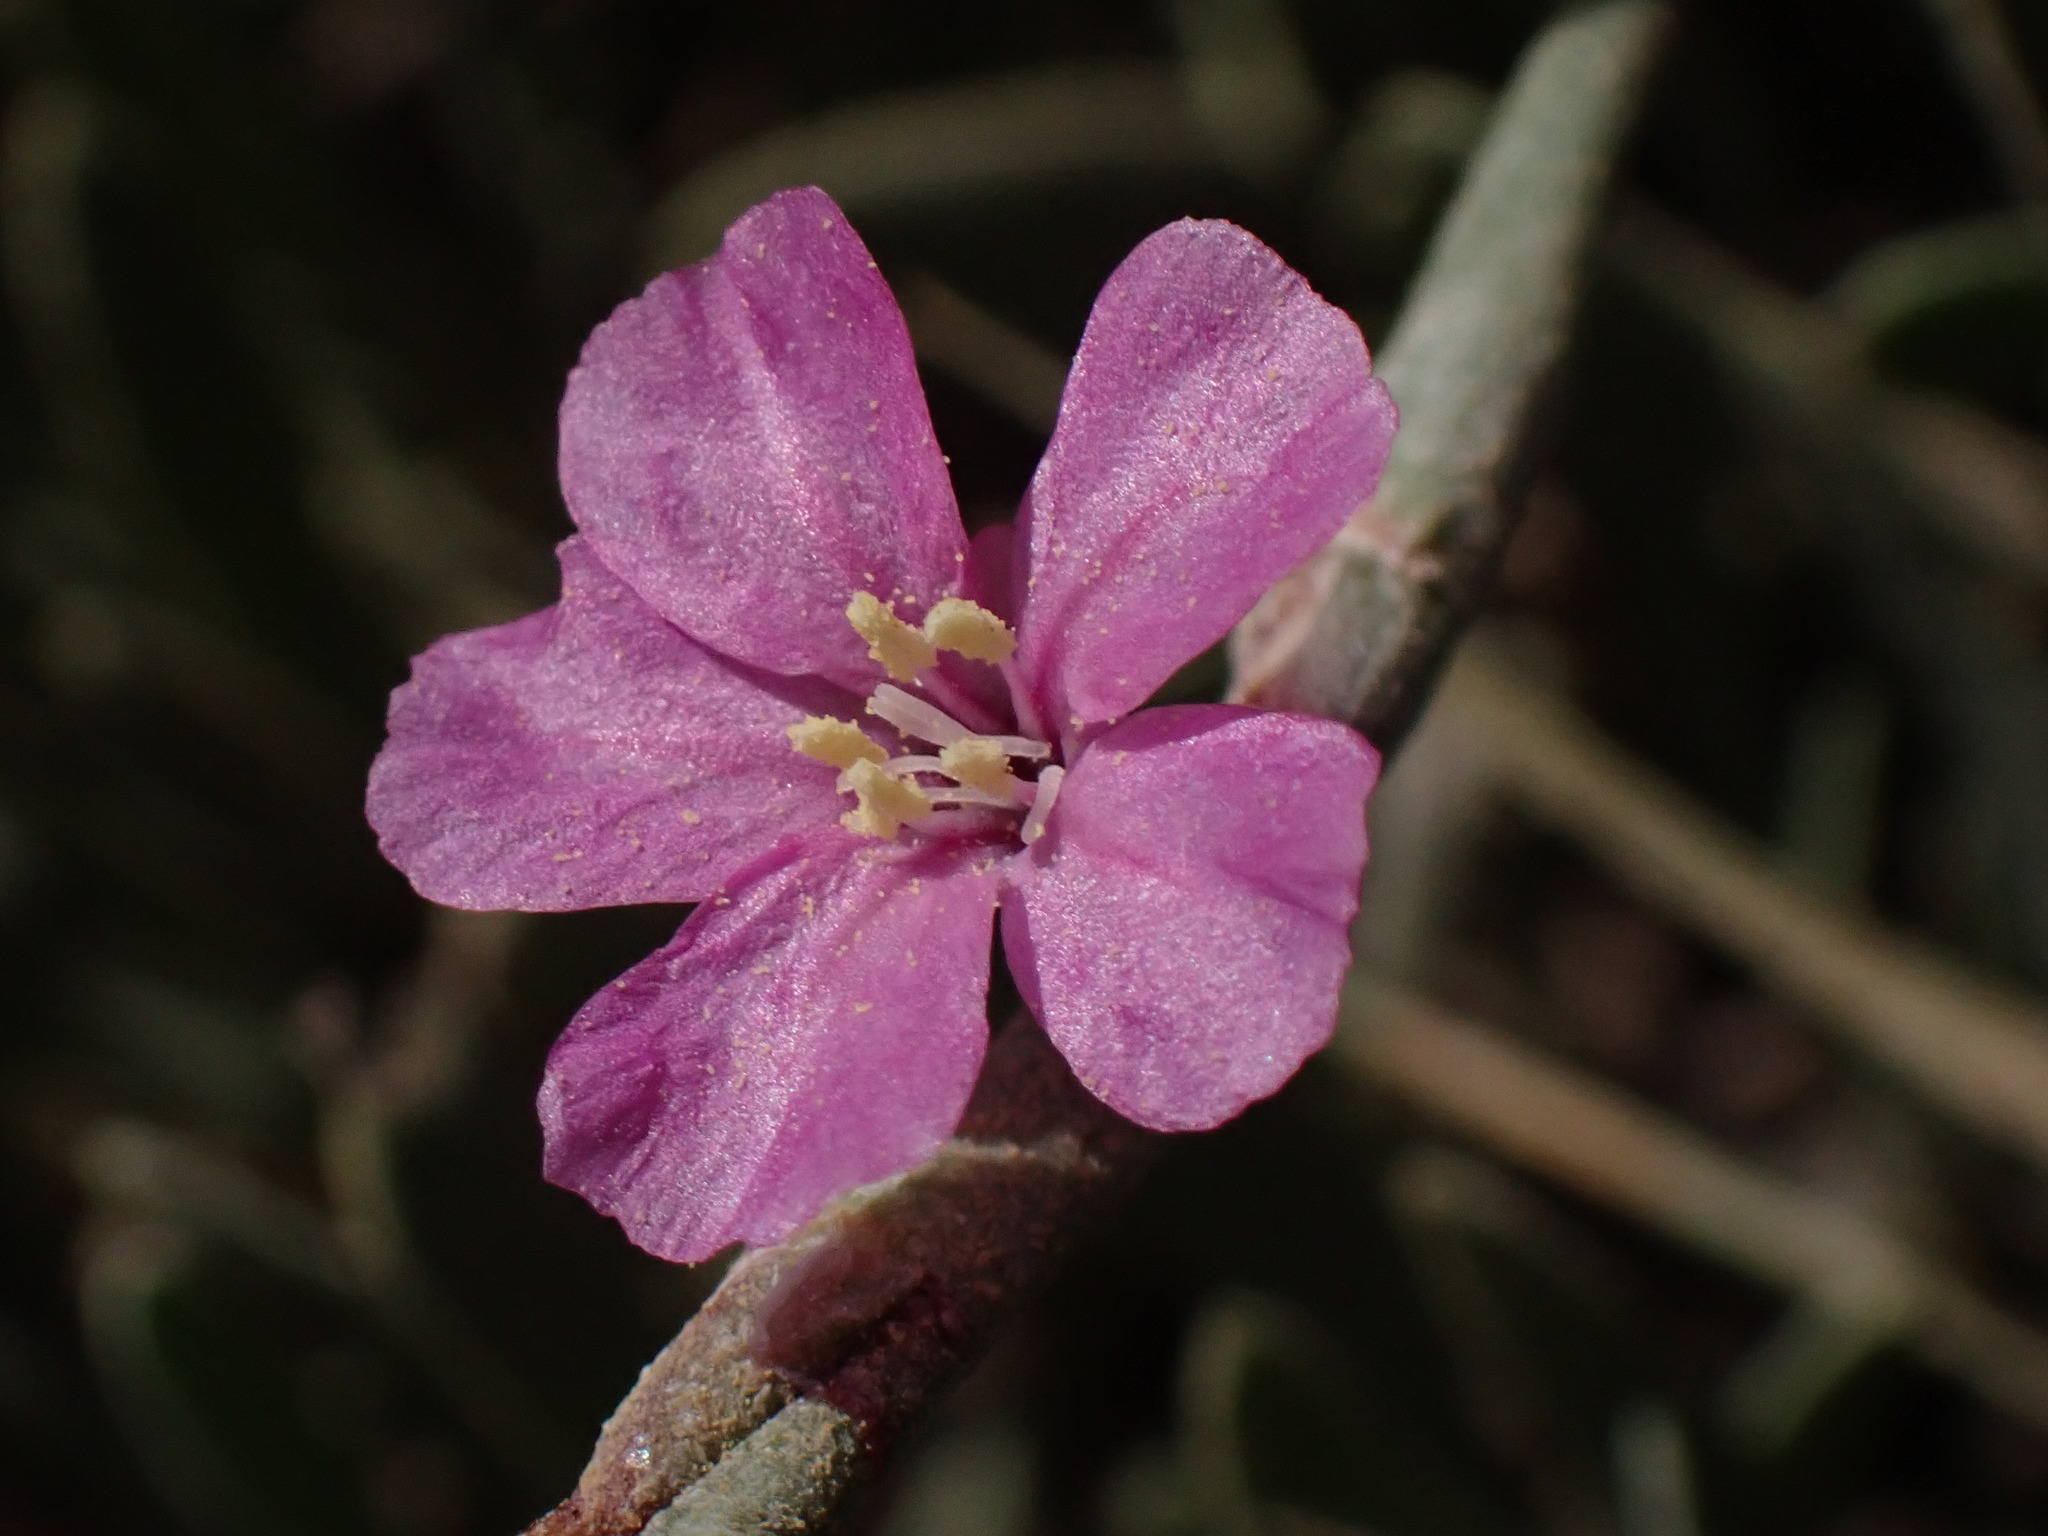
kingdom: Plantae
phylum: Tracheophyta
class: Magnoliopsida
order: Caryophyllales
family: Plumbaginaceae
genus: Limoniastrum
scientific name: Limoniastrum monopetalum
